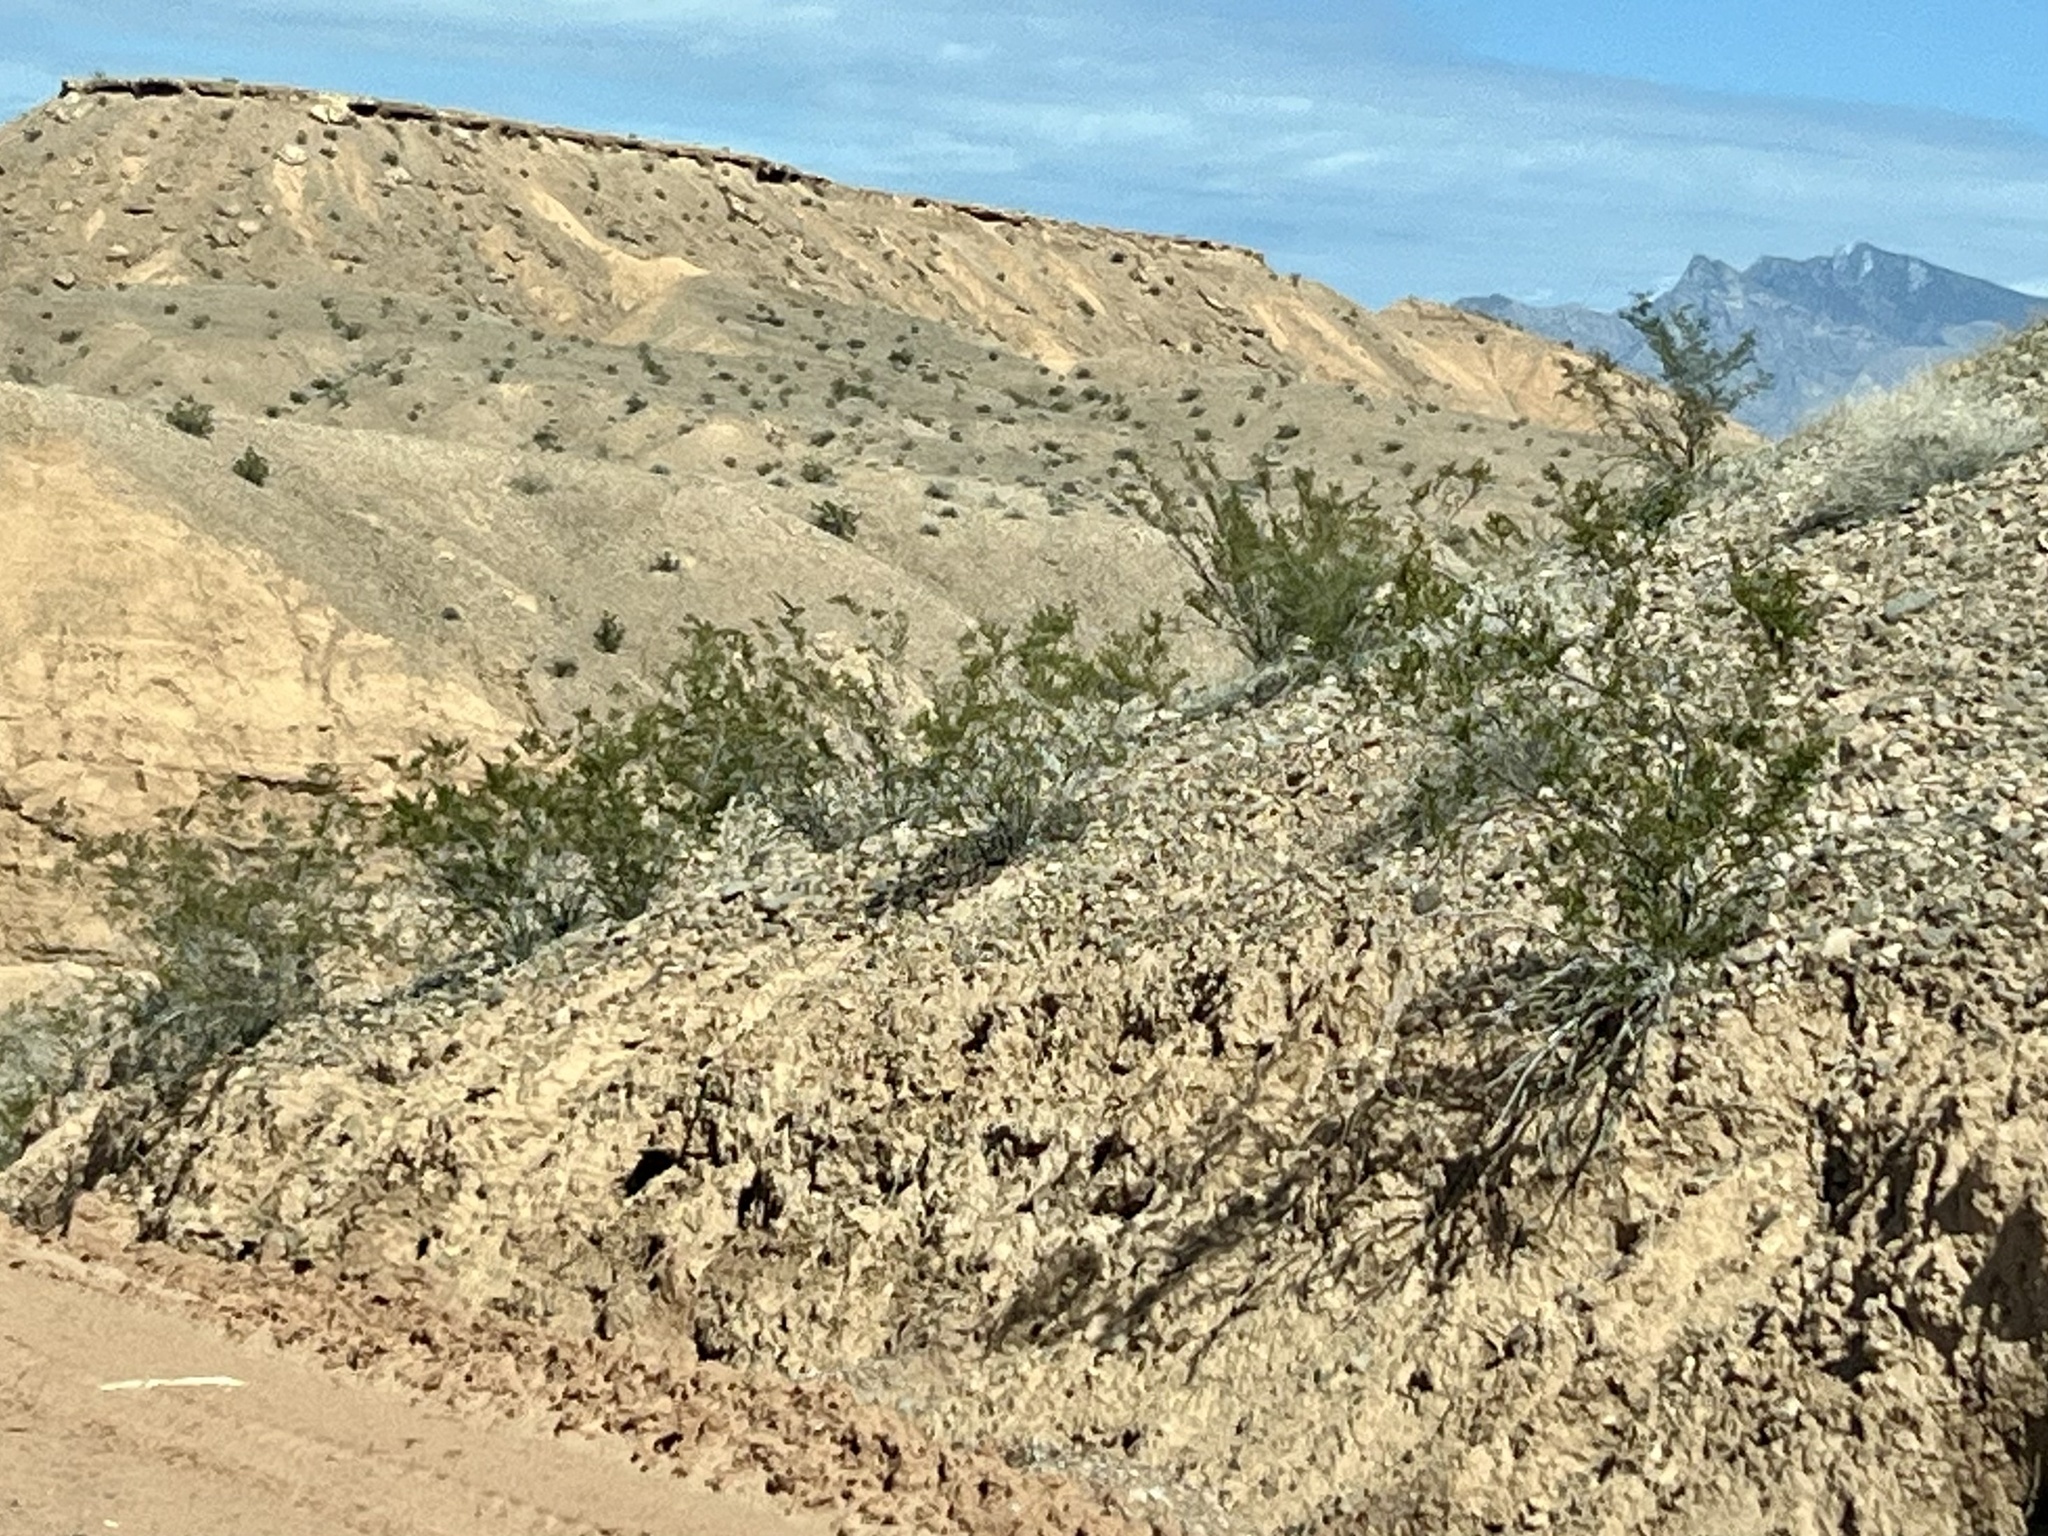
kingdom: Plantae
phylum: Tracheophyta
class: Magnoliopsida
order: Zygophyllales
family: Zygophyllaceae
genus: Larrea
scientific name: Larrea tridentata
